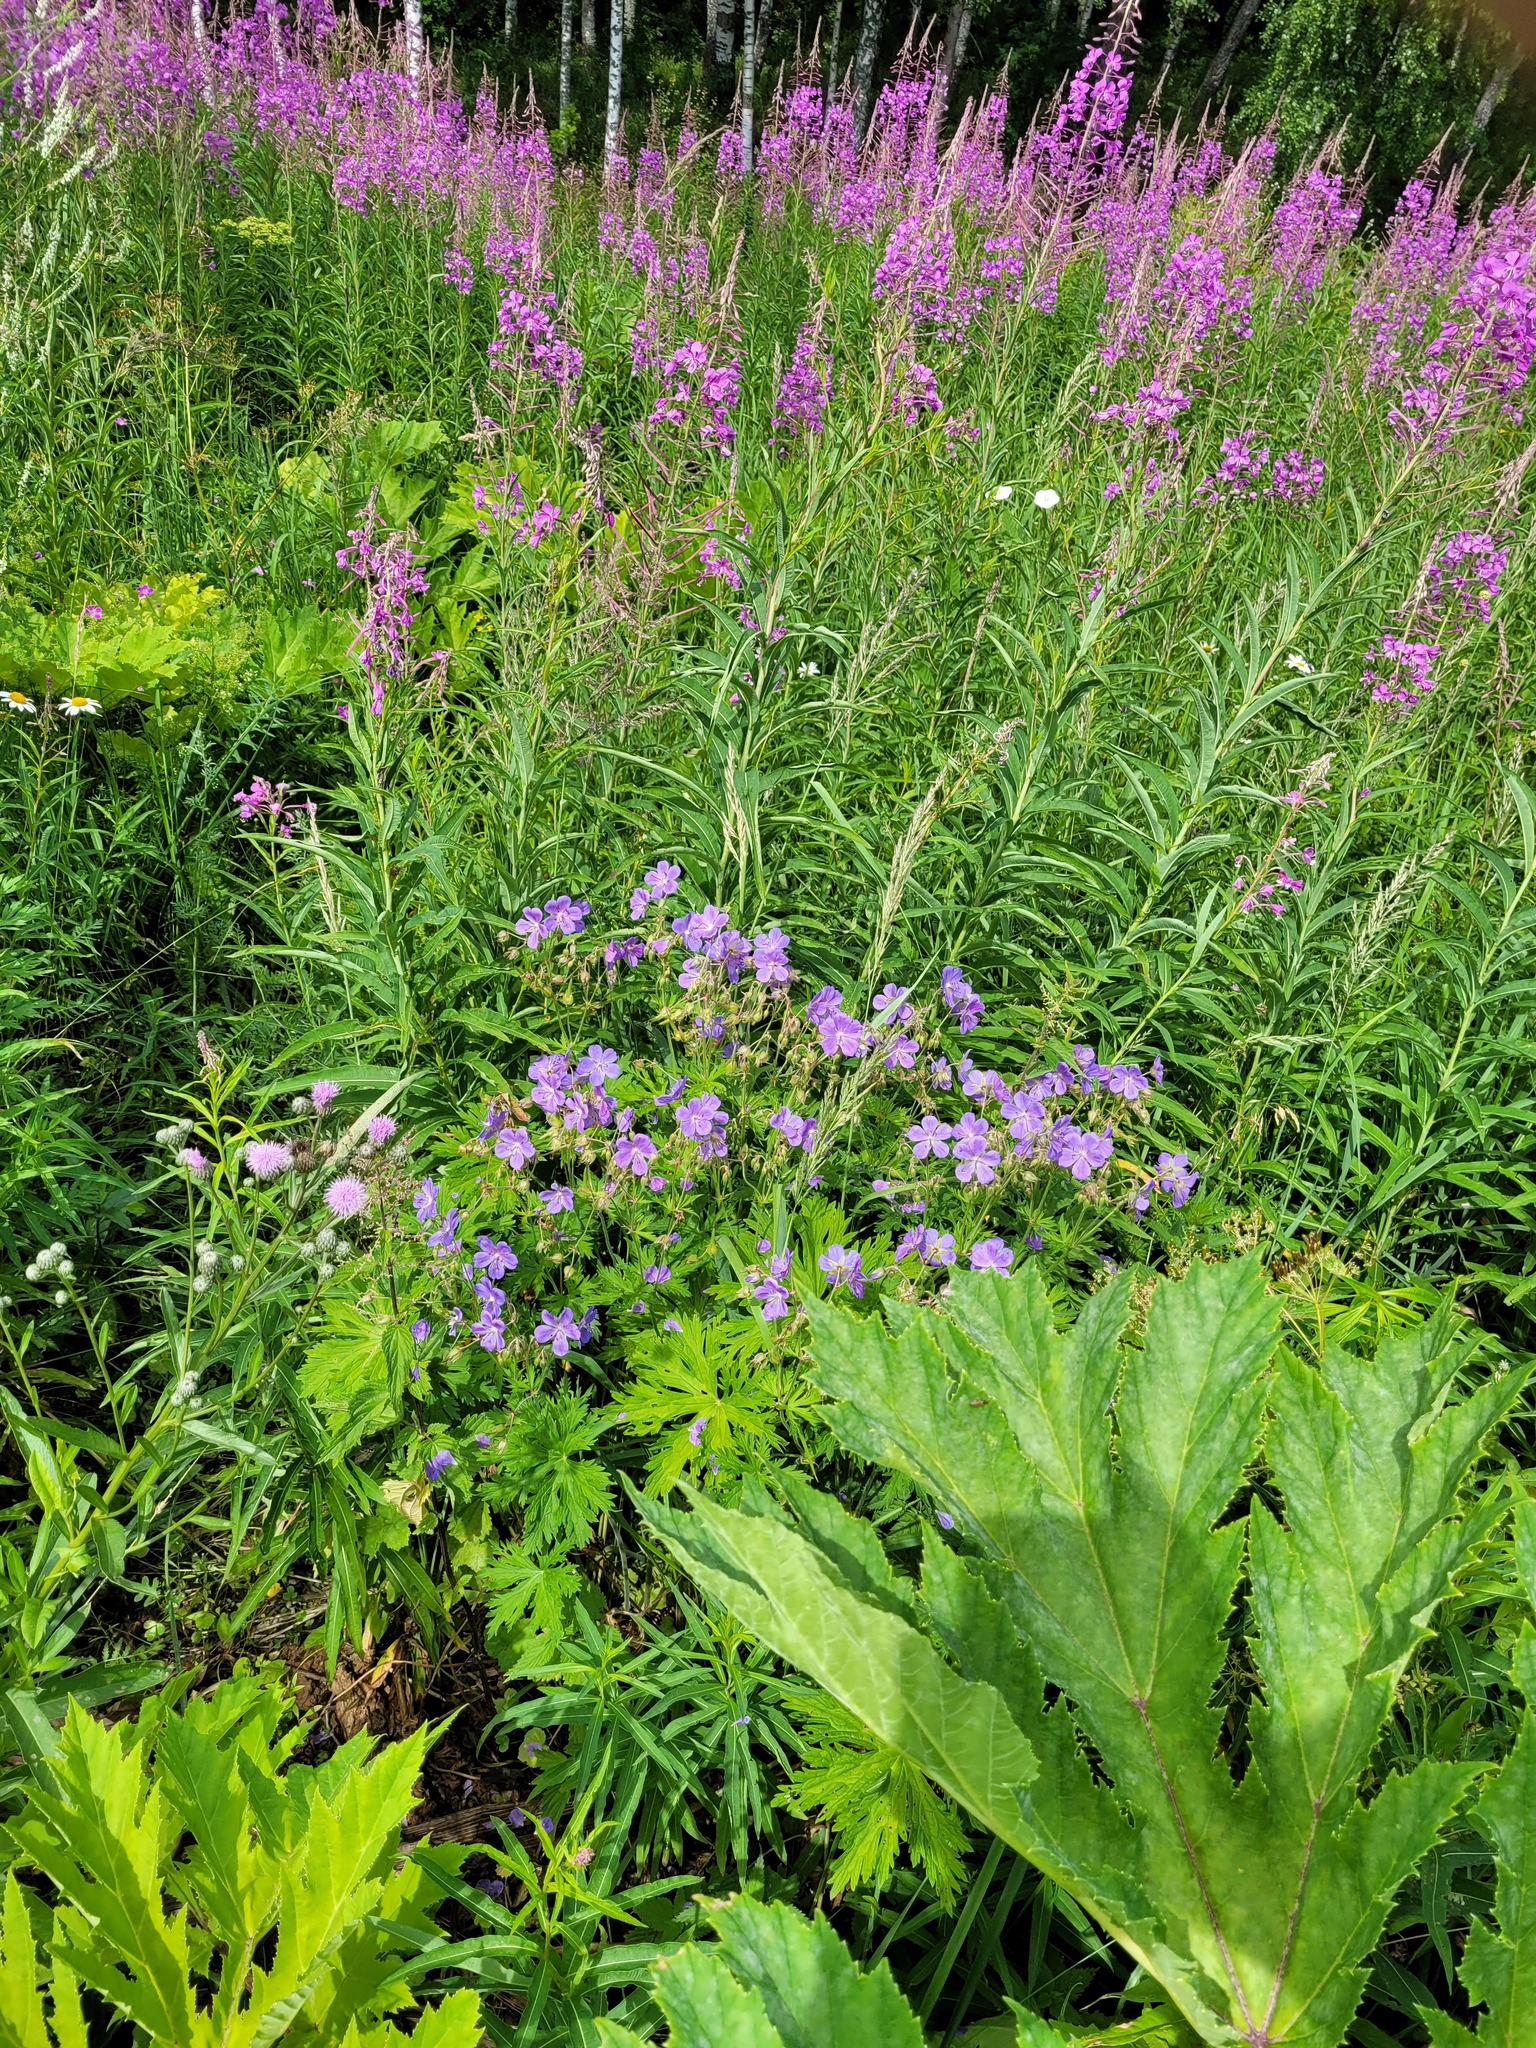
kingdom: Plantae
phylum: Tracheophyta
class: Magnoliopsida
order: Geraniales
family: Geraniaceae
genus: Geranium
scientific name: Geranium pratense
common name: Meadow crane's-bill
